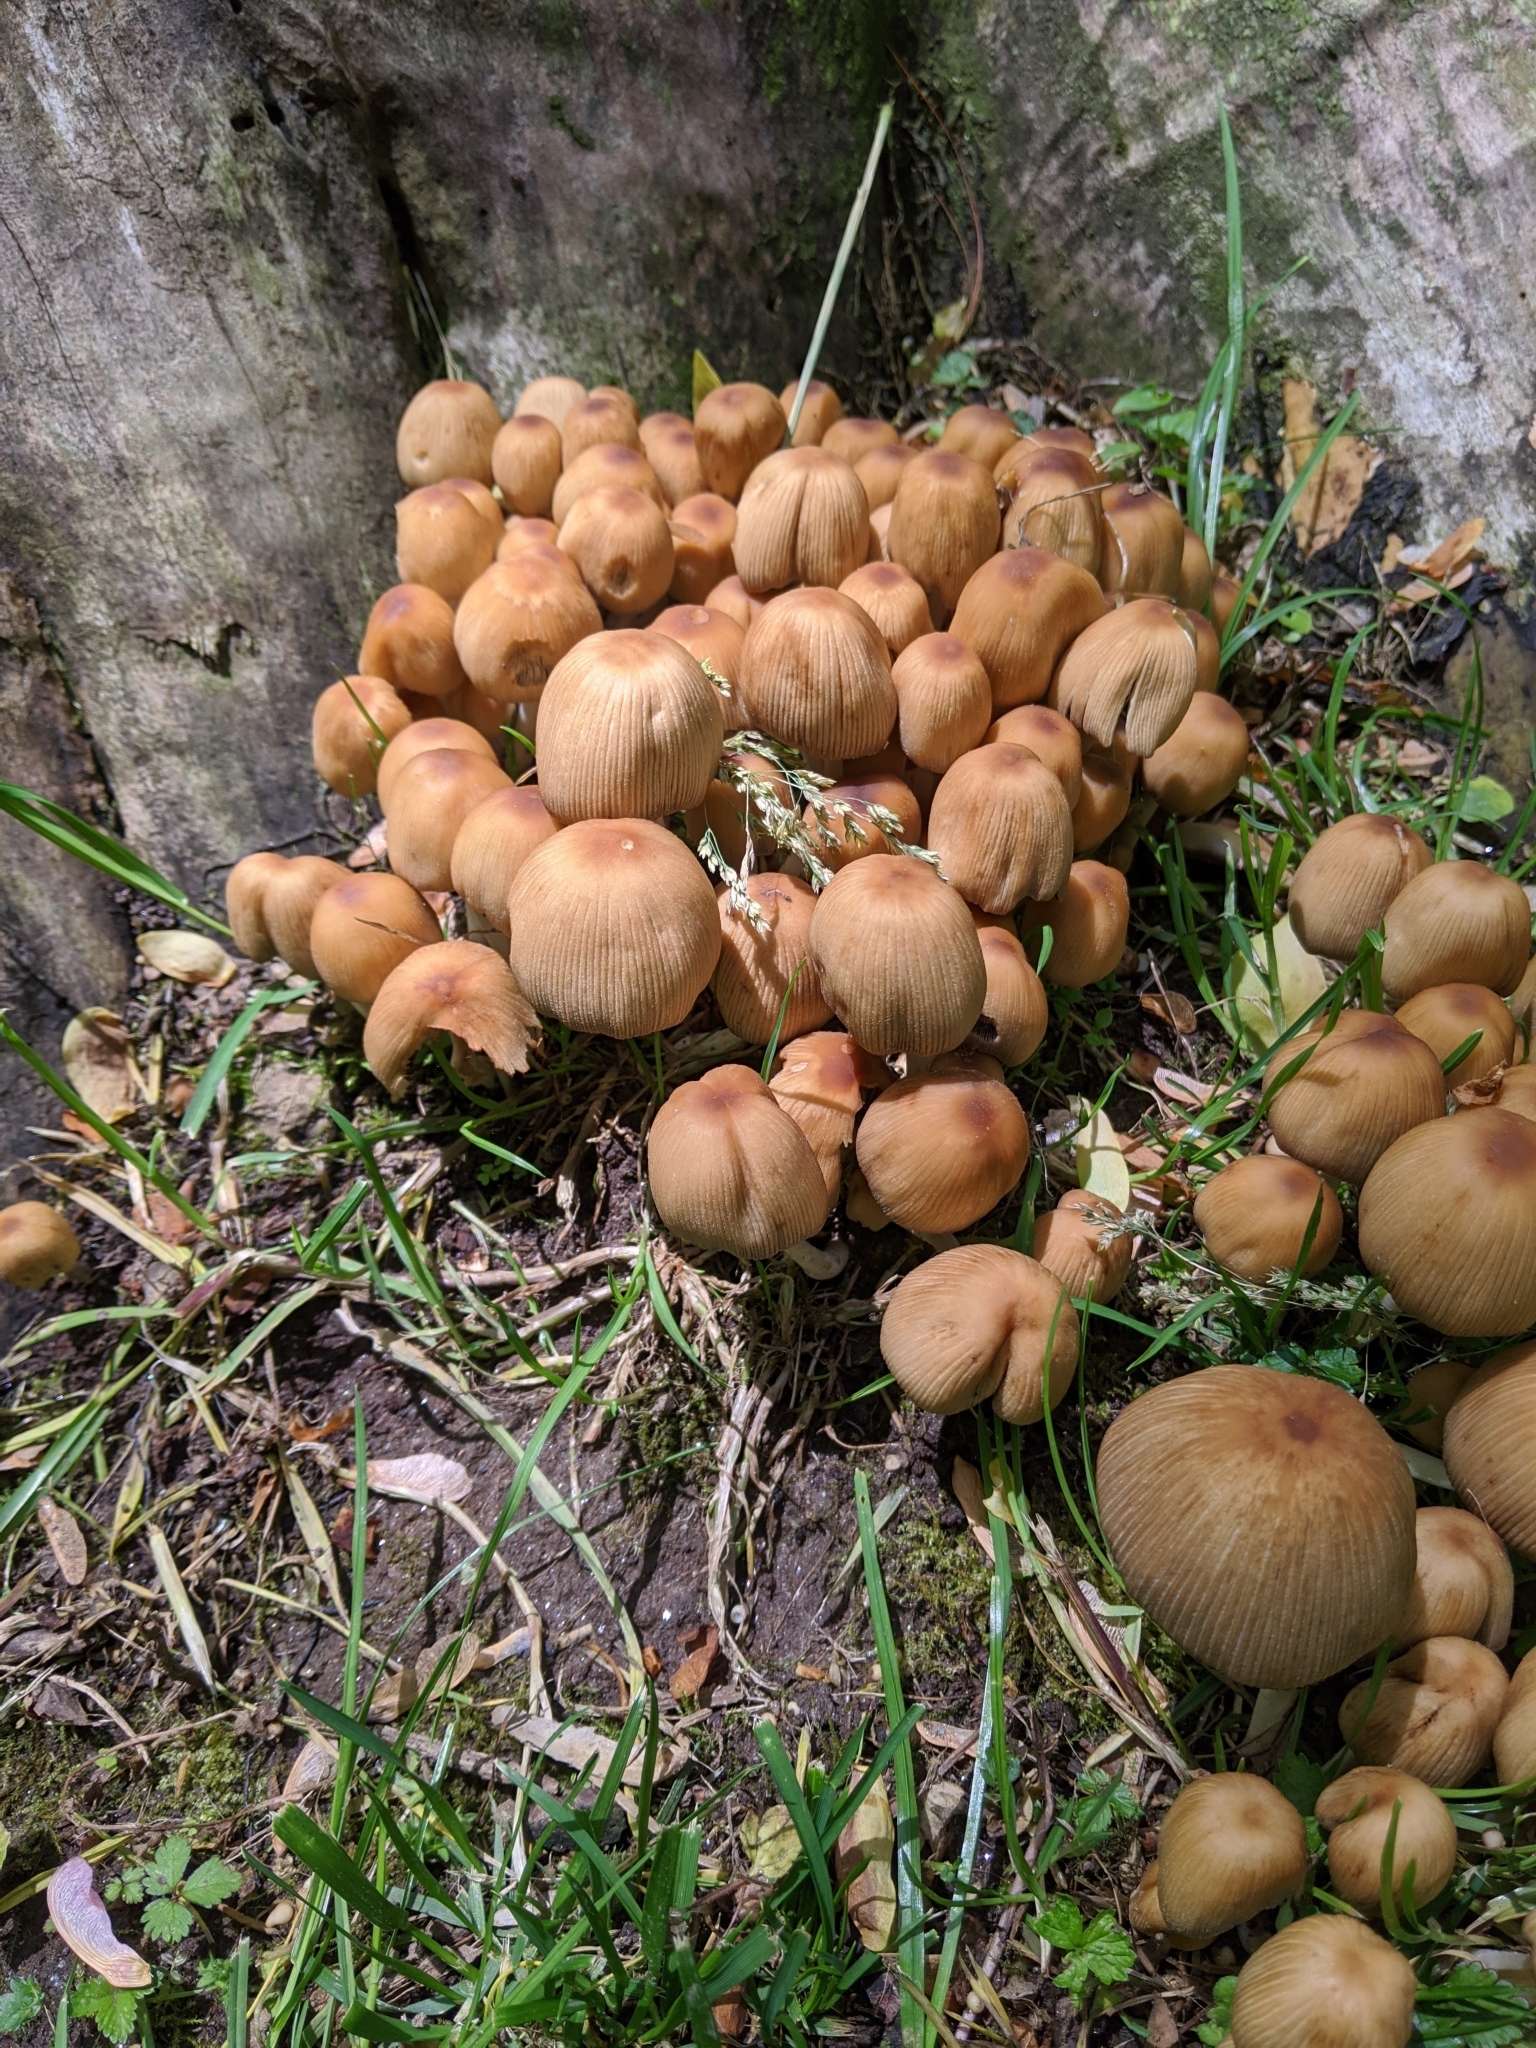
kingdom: Fungi
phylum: Basidiomycota
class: Agaricomycetes
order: Agaricales
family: Psathyrellaceae
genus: Coprinellus
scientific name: Coprinellus micaceus
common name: Glistening ink-cap
